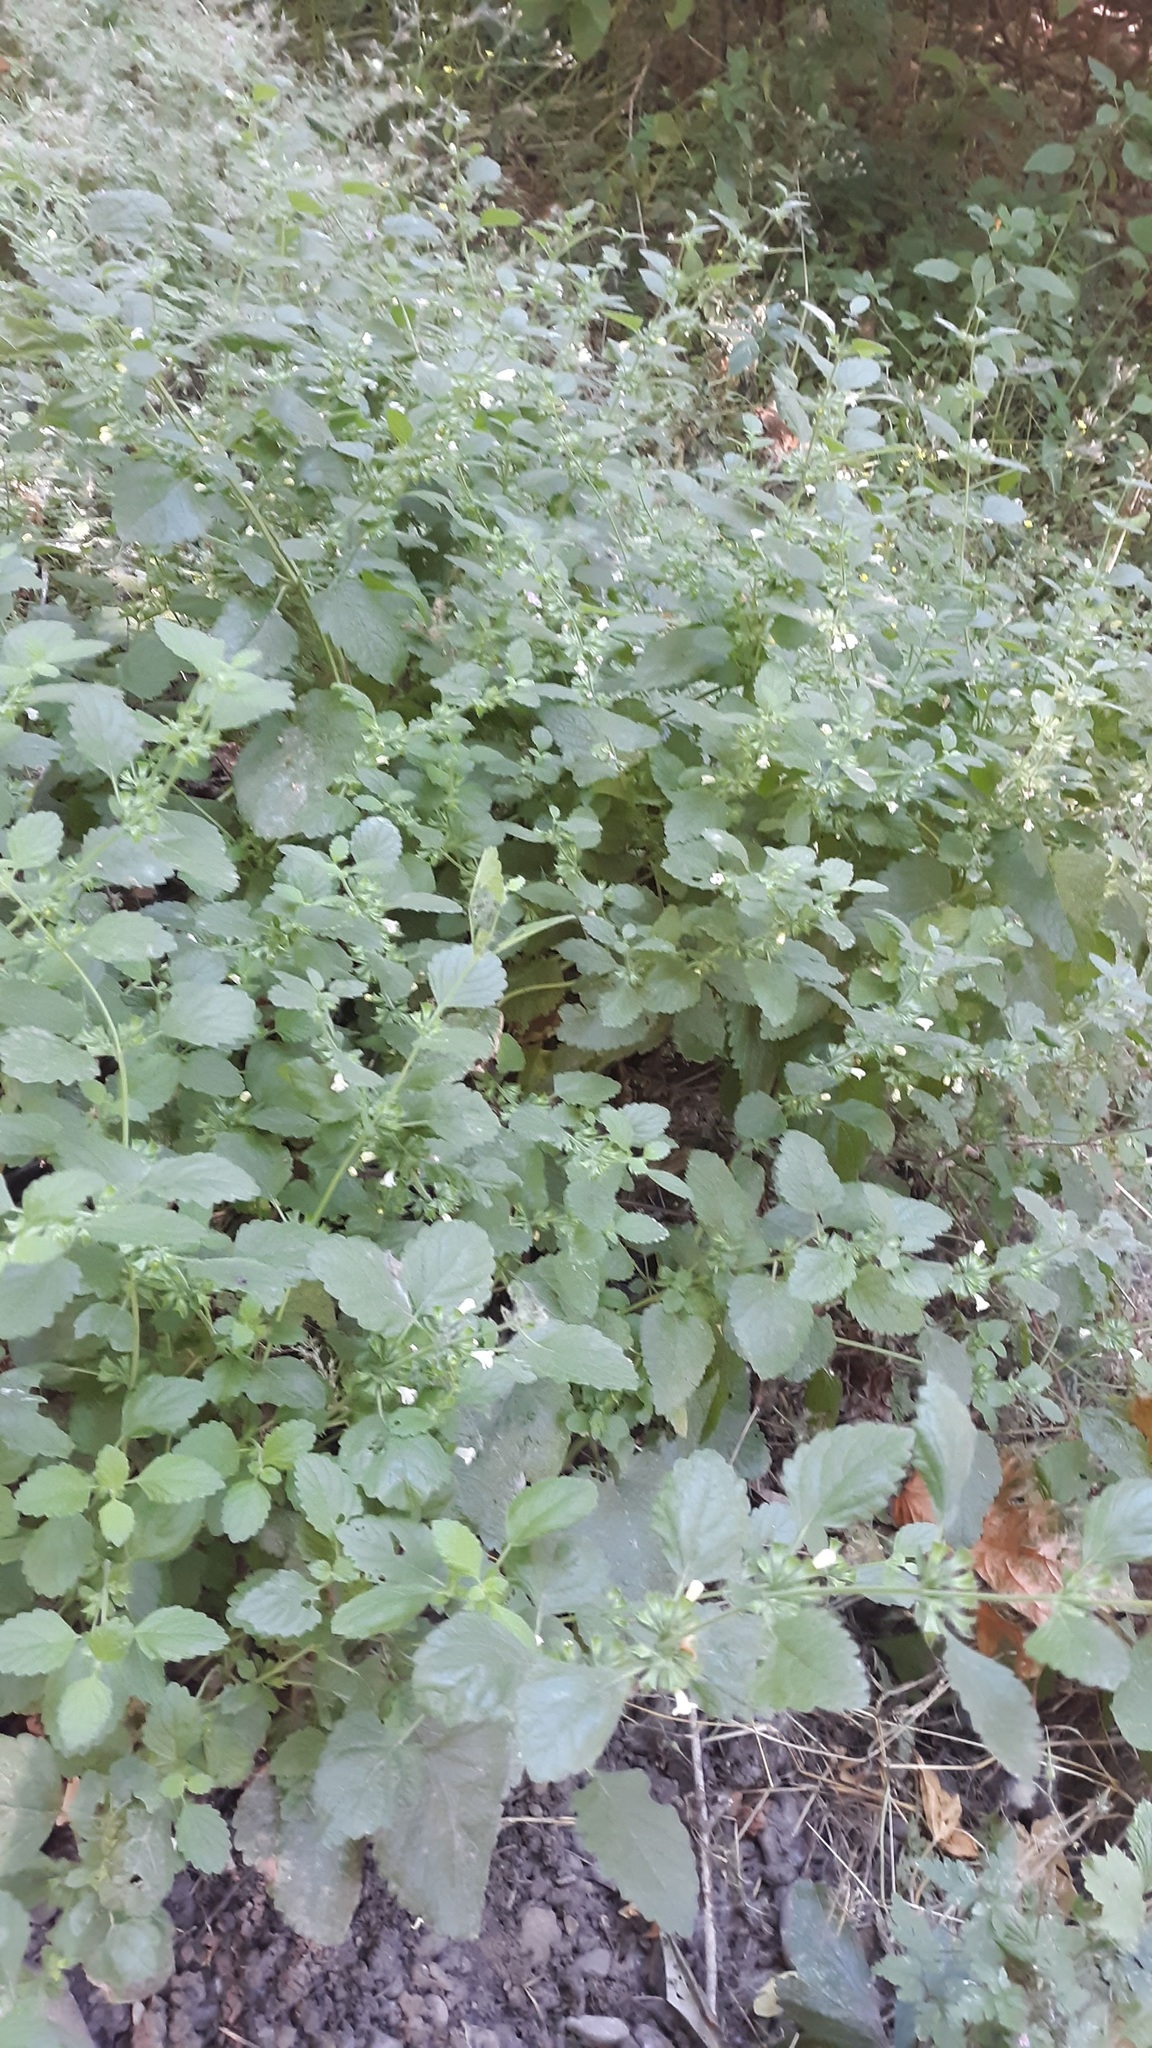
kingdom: Plantae
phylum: Tracheophyta
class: Magnoliopsida
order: Lamiales
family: Lamiaceae
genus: Melissa
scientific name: Melissa officinalis
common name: Balm
